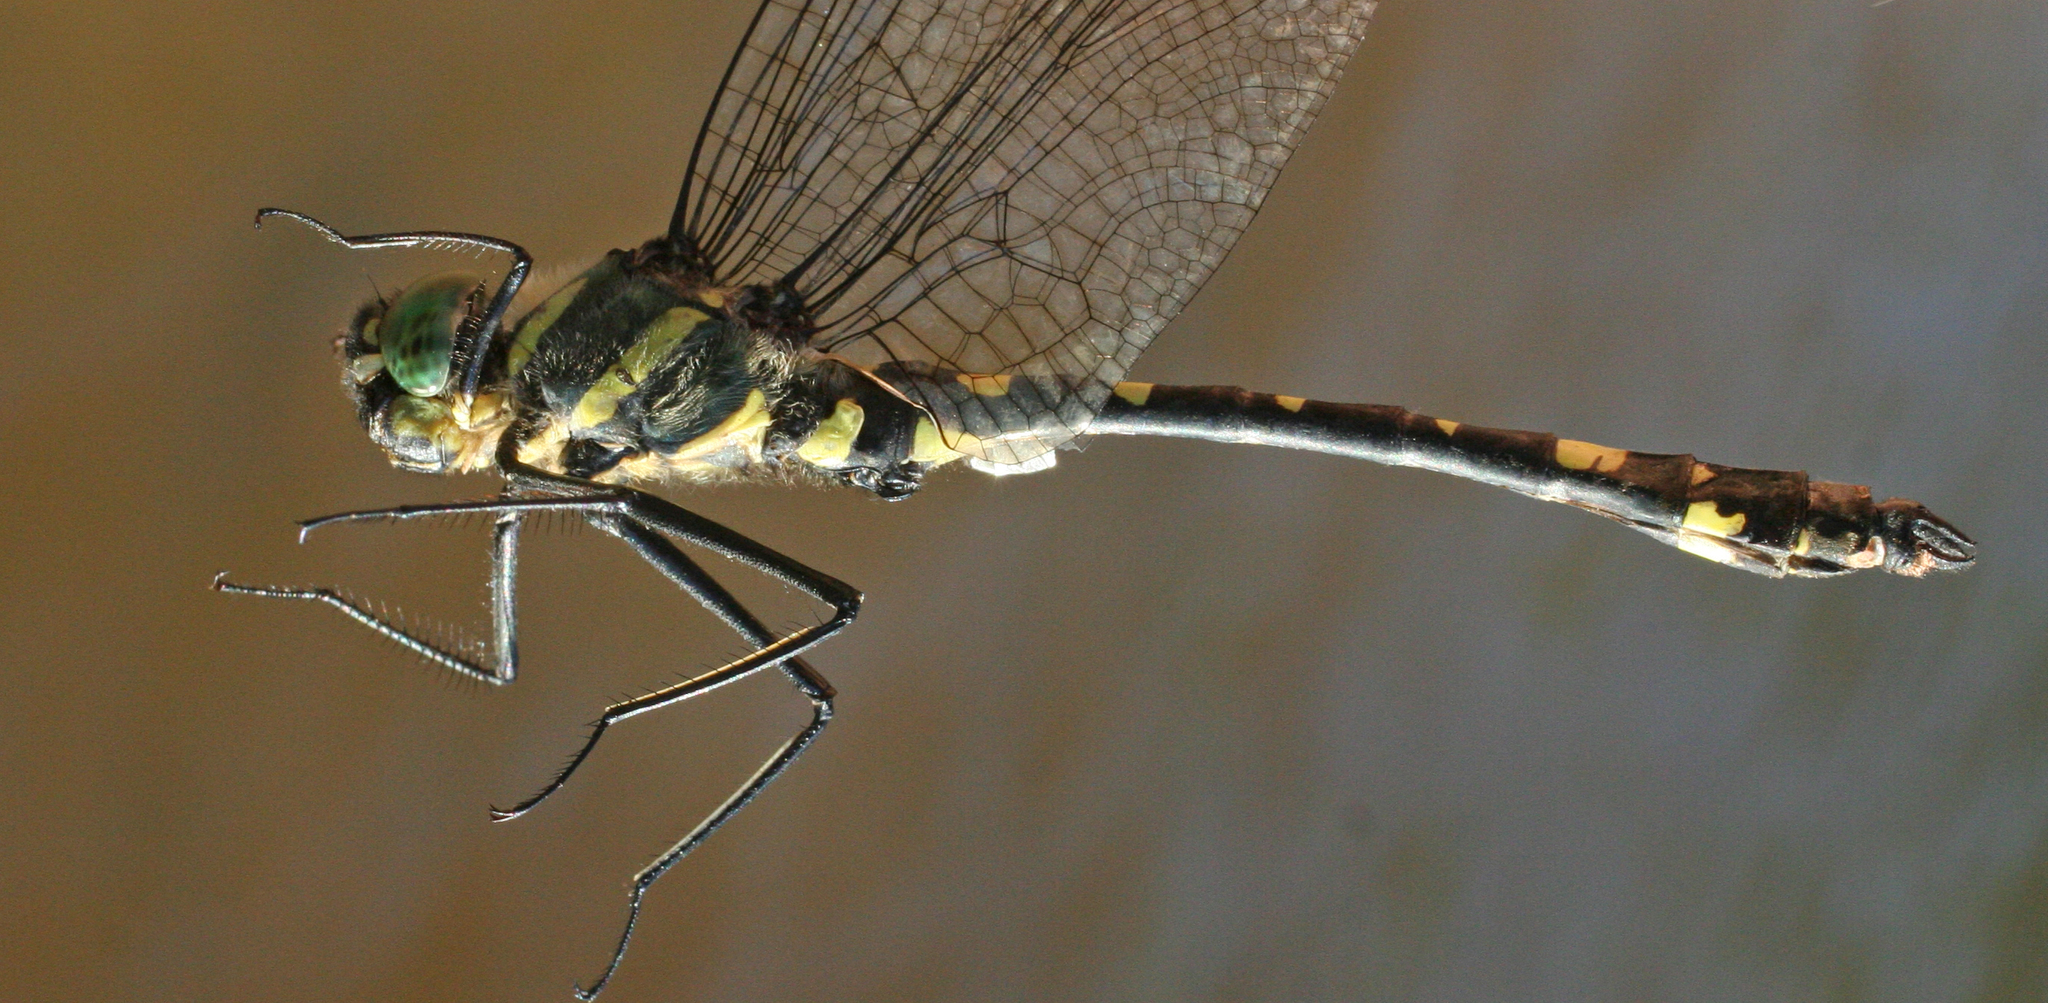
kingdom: Animalia
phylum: Arthropoda
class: Insecta
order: Odonata
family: Macromiidae
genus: Macromia
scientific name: Macromia daimoji
